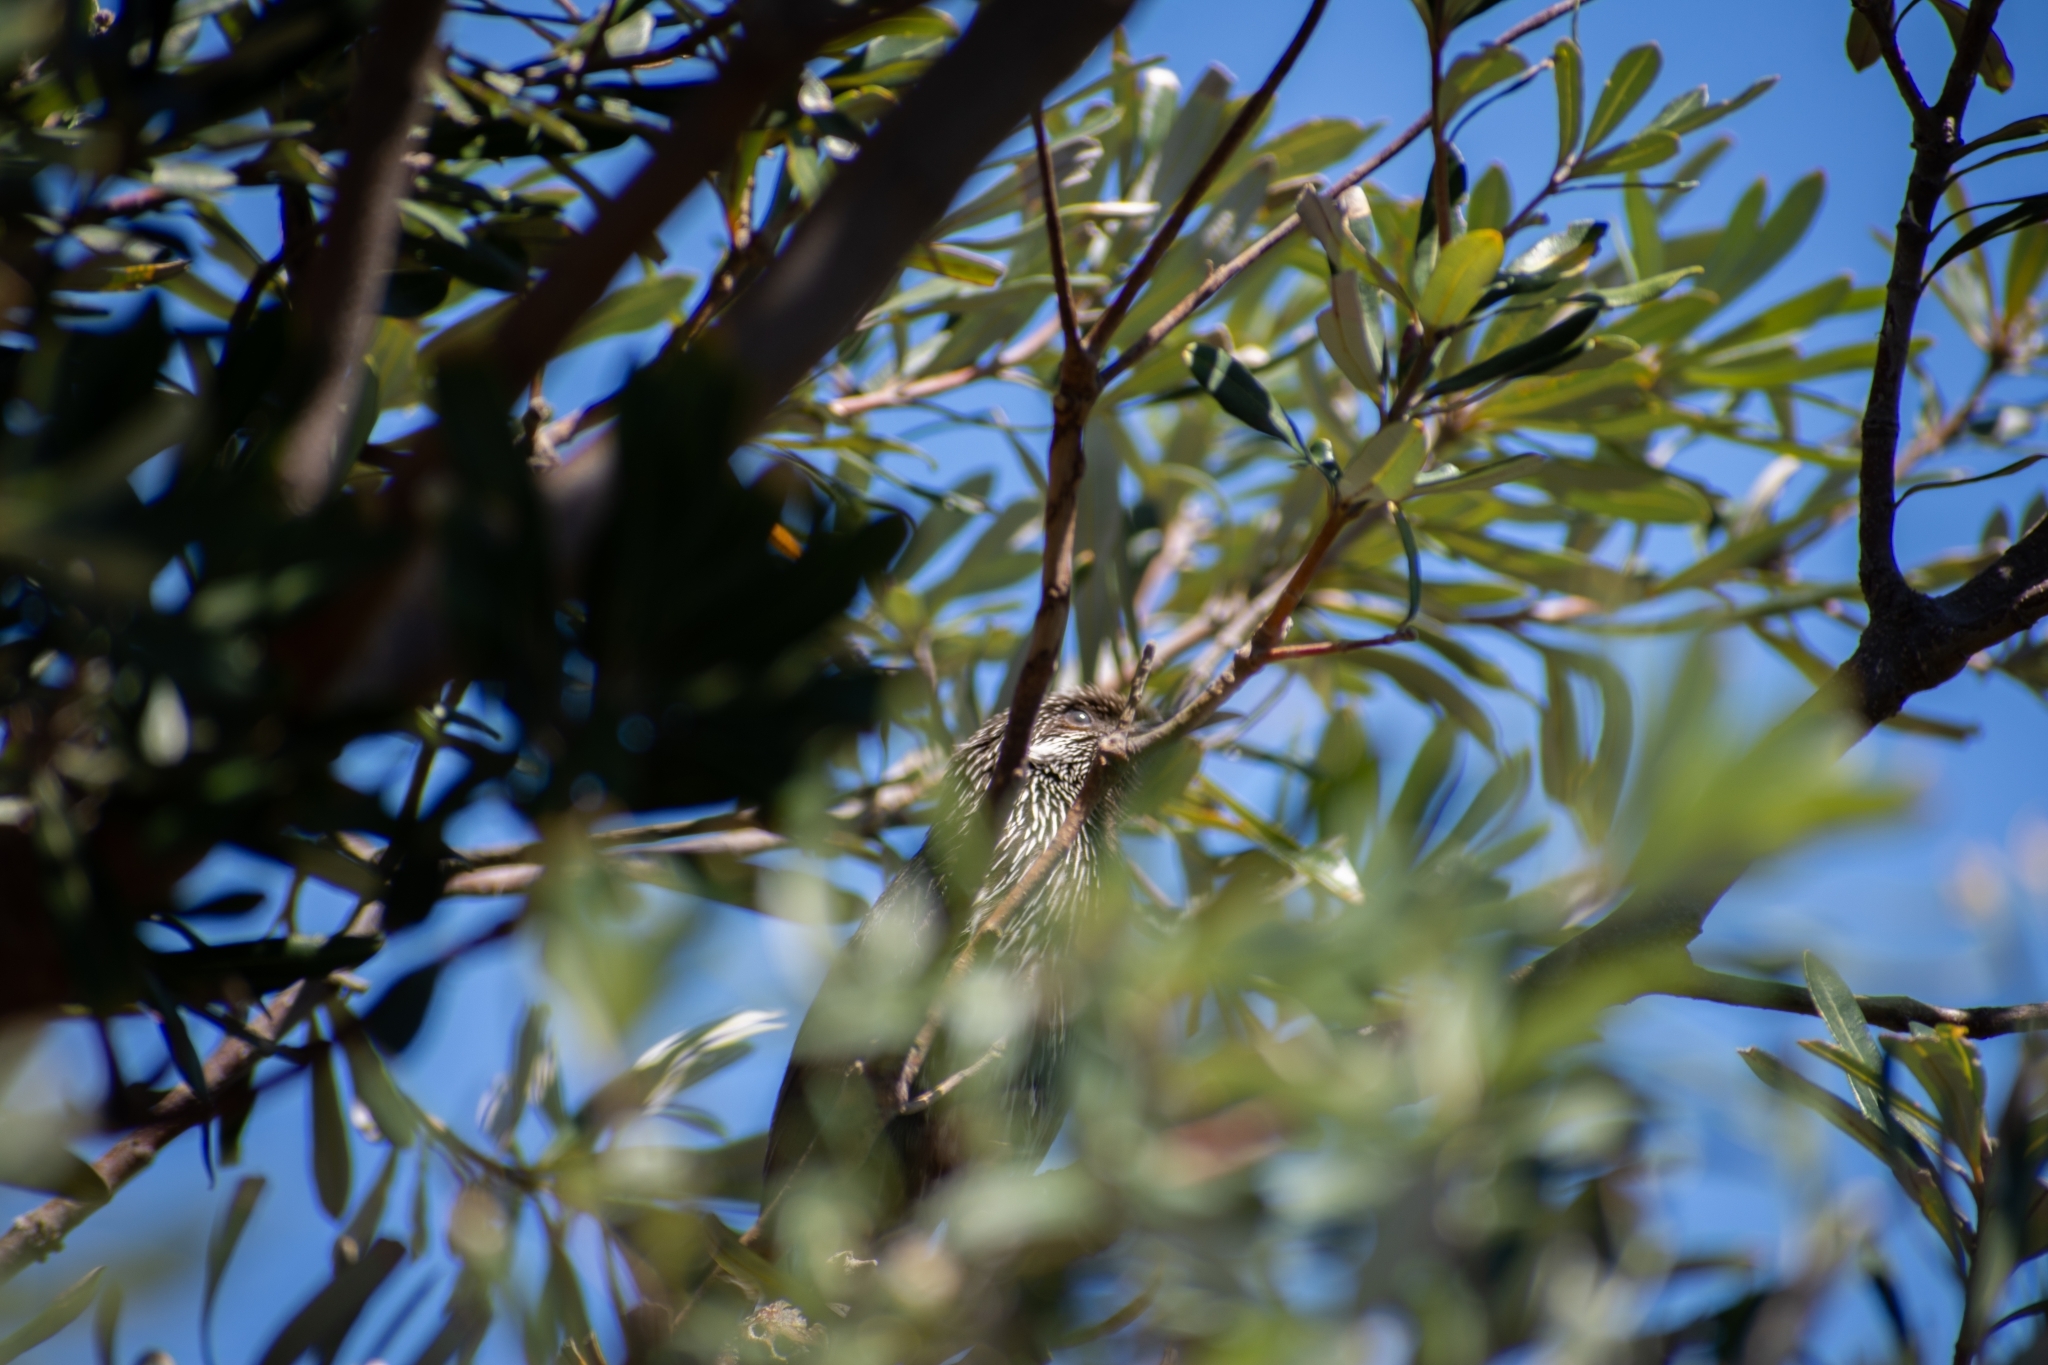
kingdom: Animalia
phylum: Chordata
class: Aves
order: Passeriformes
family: Meliphagidae
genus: Anthochaera
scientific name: Anthochaera chrysoptera
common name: Little wattlebird
